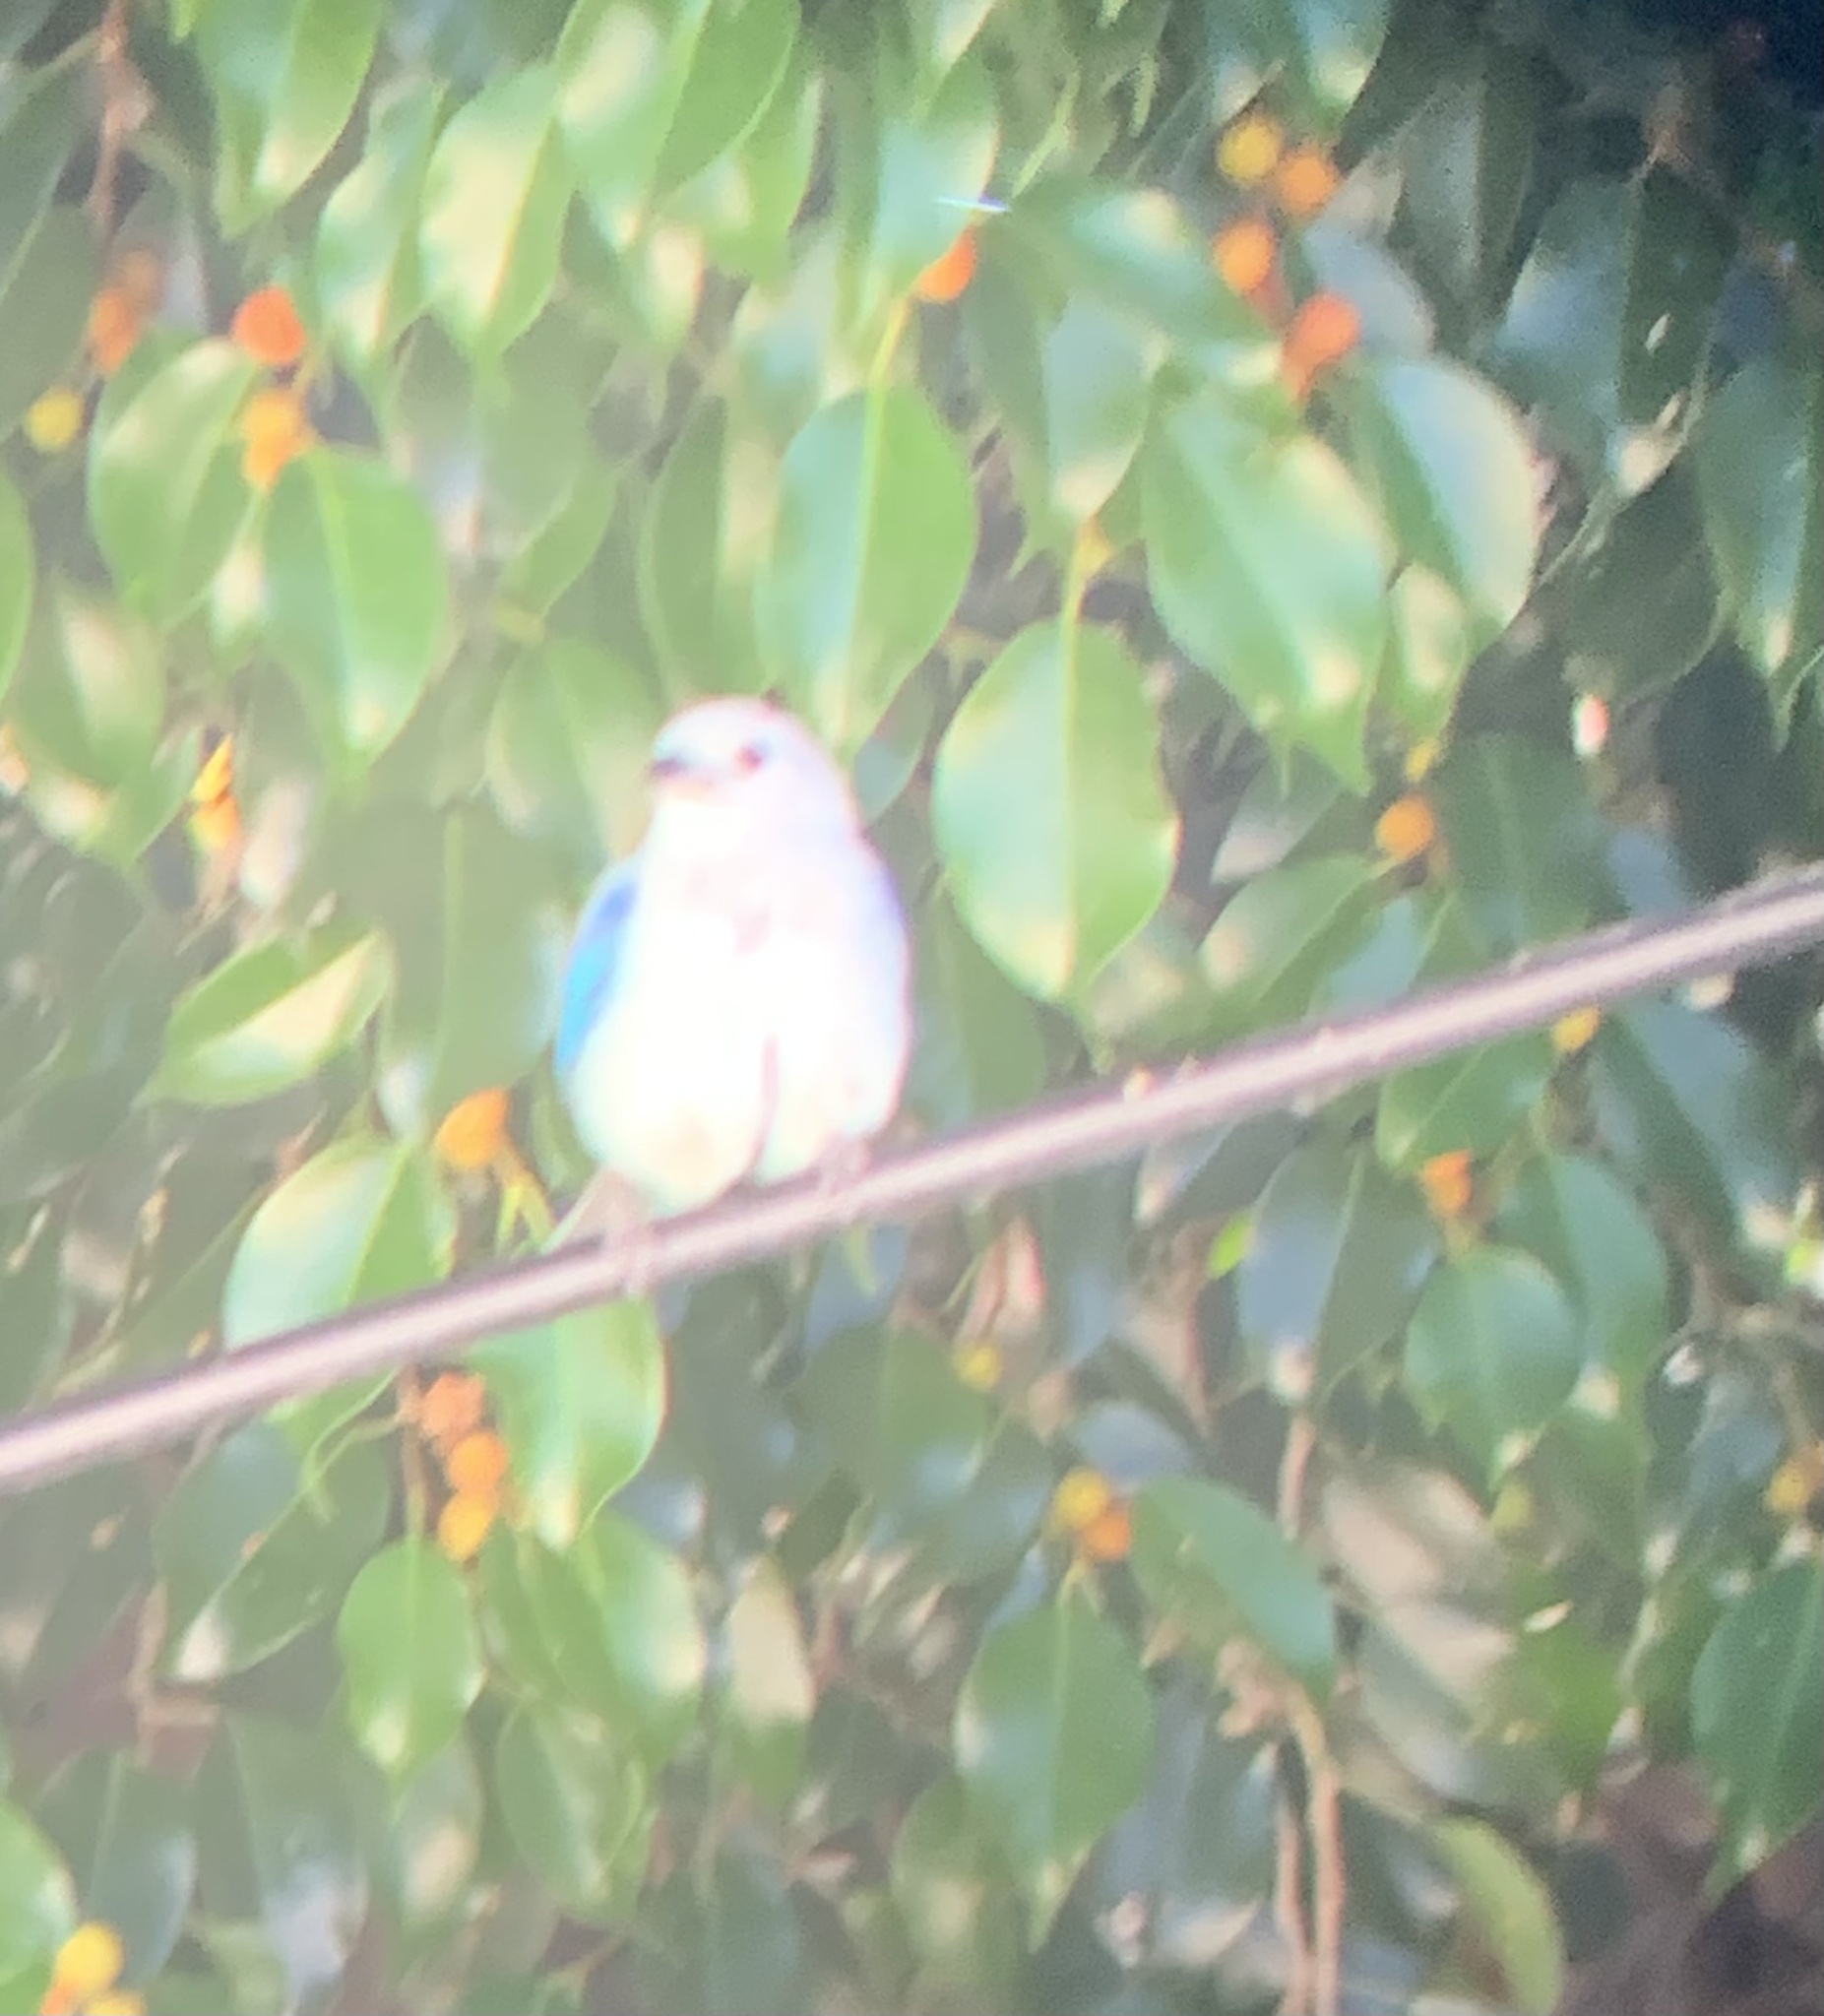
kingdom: Animalia
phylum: Chordata
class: Aves
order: Passeriformes
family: Thraupidae
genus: Thraupis
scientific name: Thraupis episcopus
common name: Blue-grey tanager
